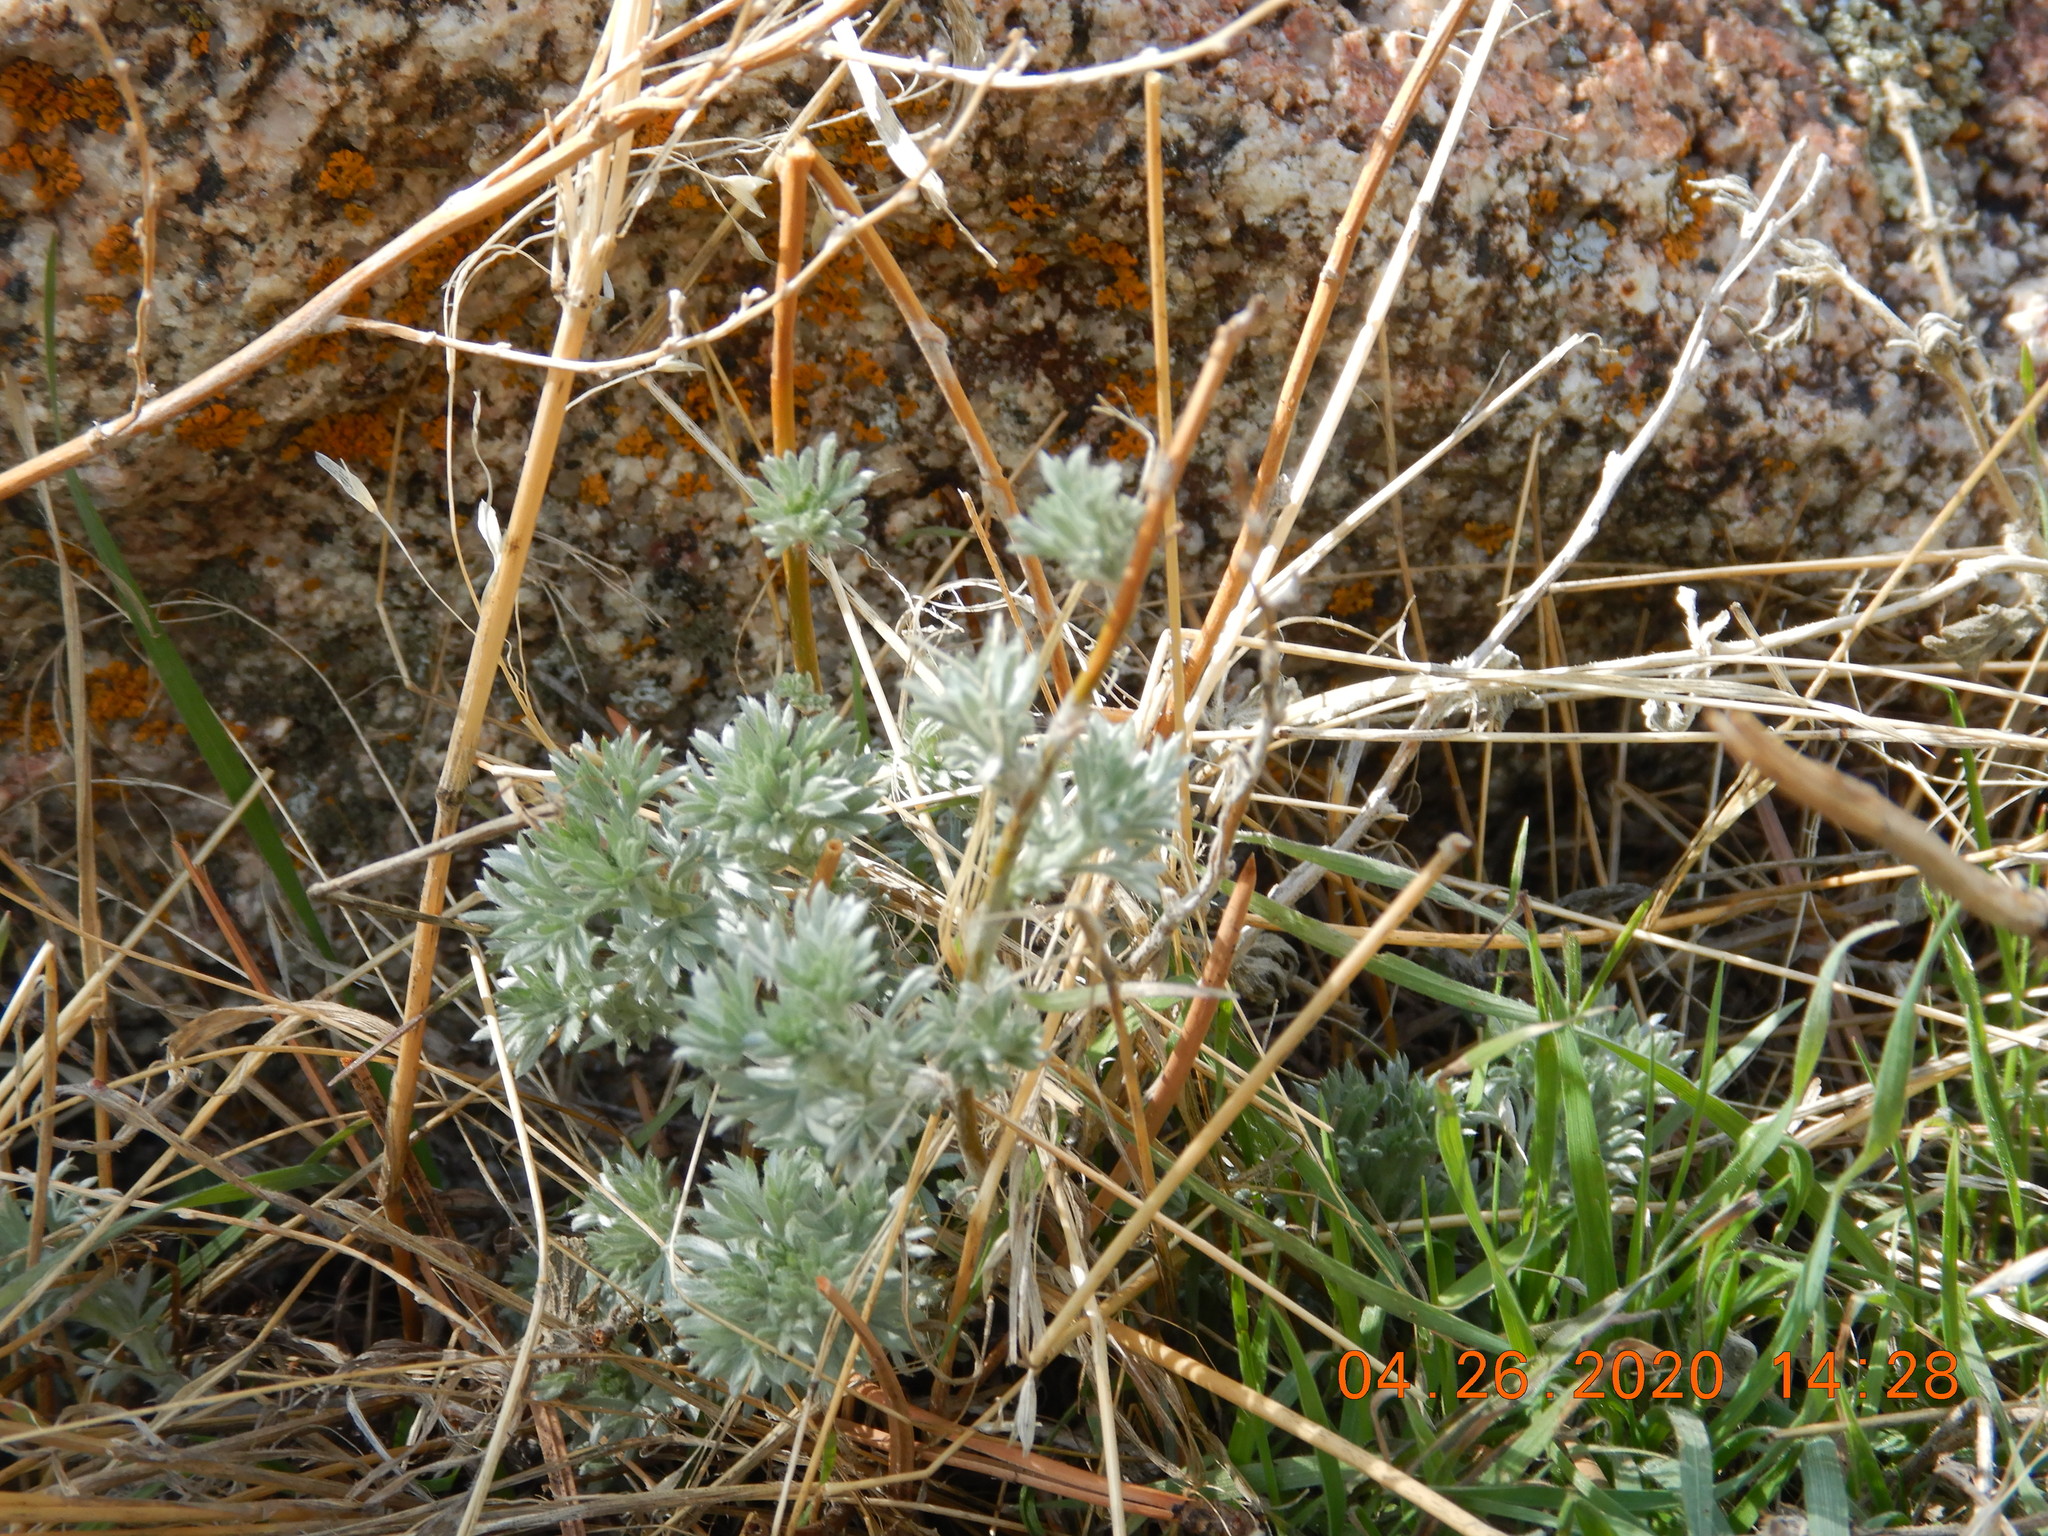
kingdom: Plantae
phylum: Tracheophyta
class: Magnoliopsida
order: Asterales
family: Asteraceae
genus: Artemisia
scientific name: Artemisia frigida
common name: Prairie sagewort
